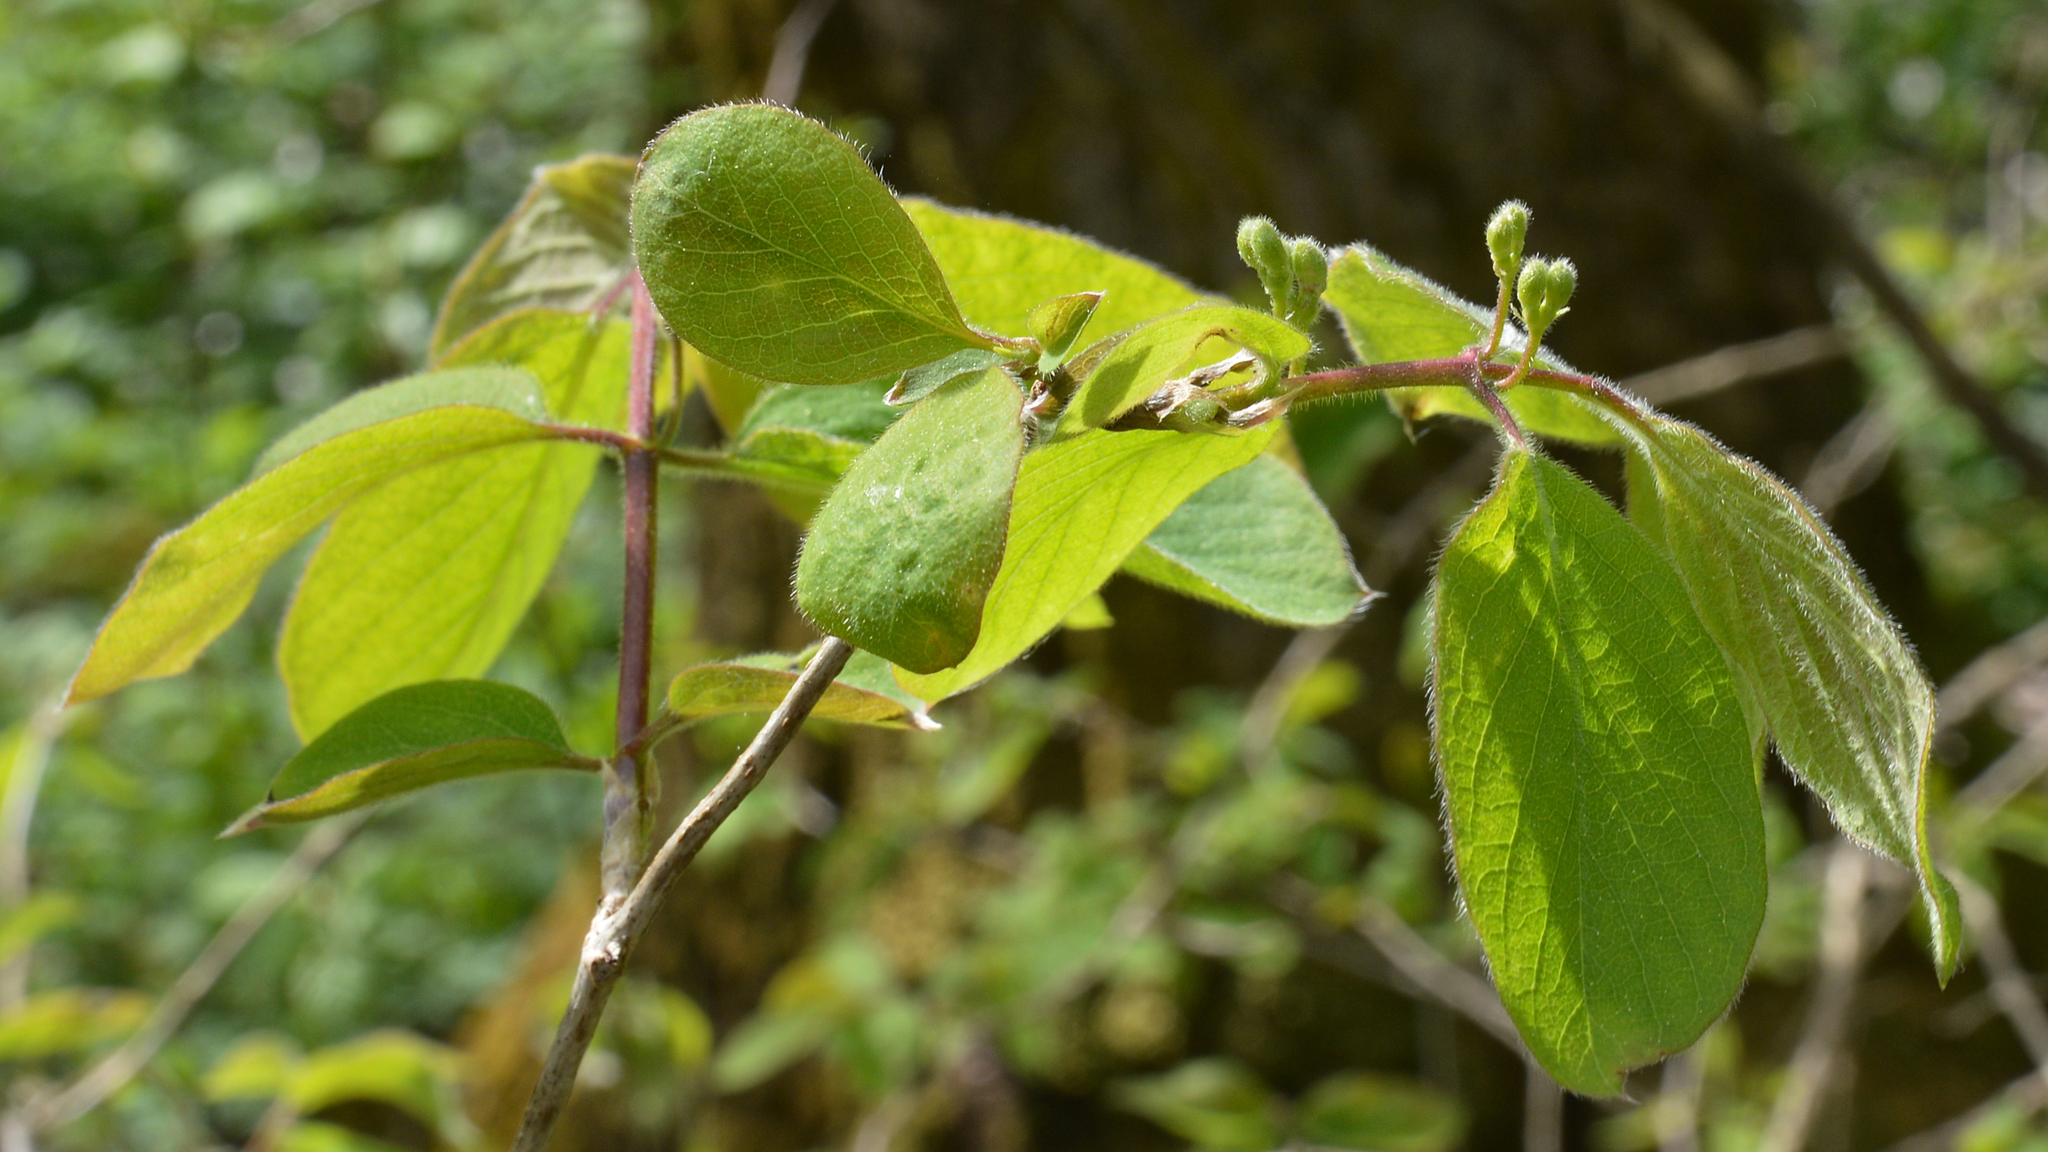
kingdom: Plantae
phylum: Tracheophyta
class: Magnoliopsida
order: Dipsacales
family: Caprifoliaceae
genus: Lonicera
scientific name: Lonicera xylosteum
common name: Fly honeysuckle
